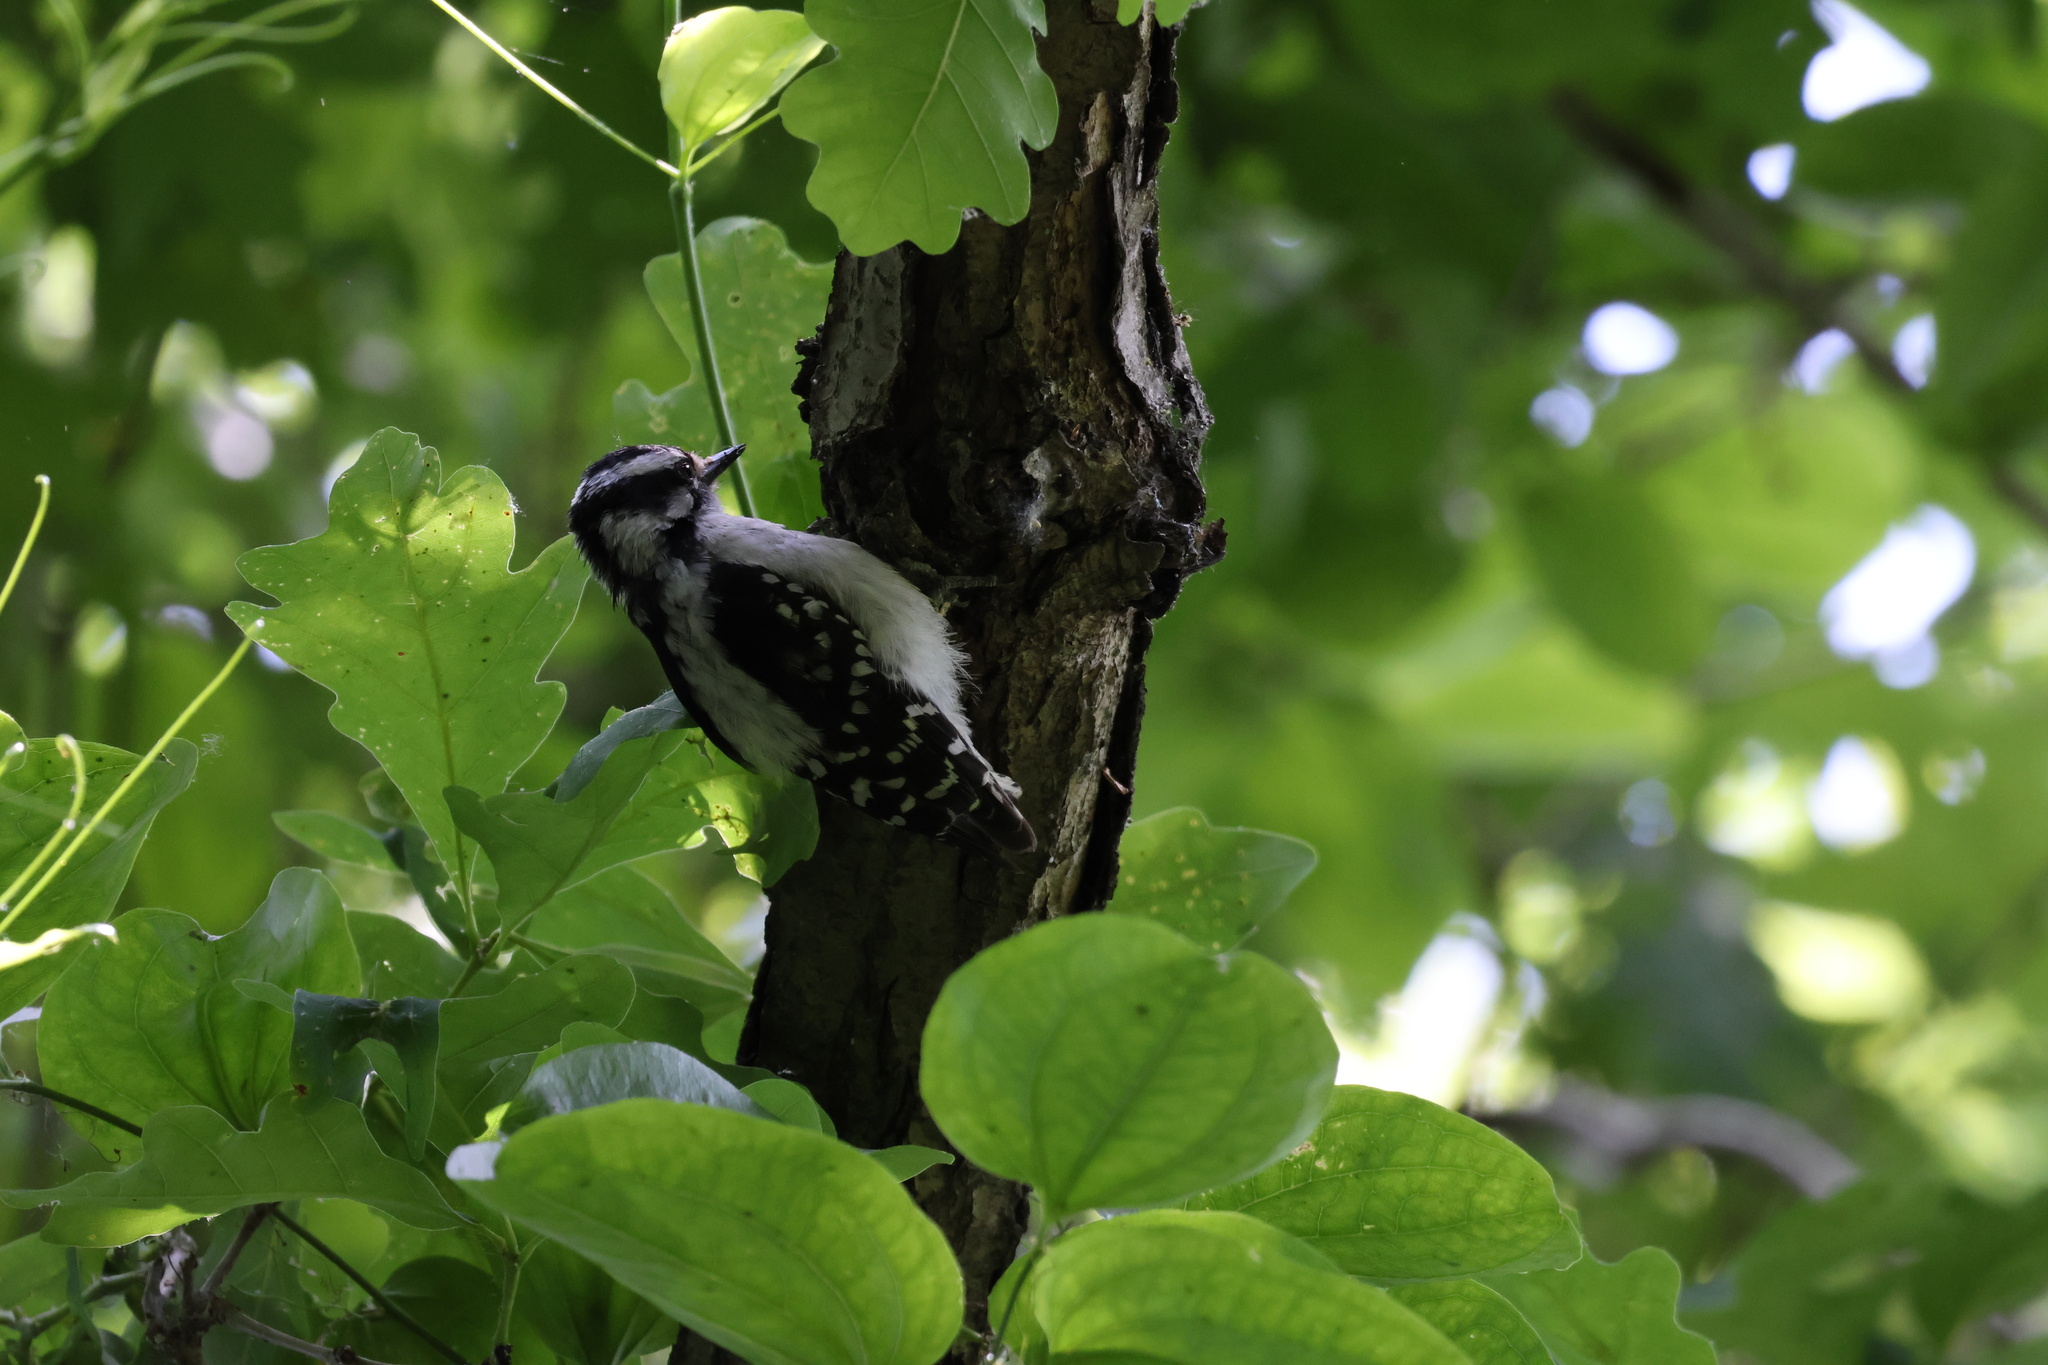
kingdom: Animalia
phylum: Chordata
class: Aves
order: Piciformes
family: Picidae
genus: Dryobates
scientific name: Dryobates pubescens
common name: Downy woodpecker
